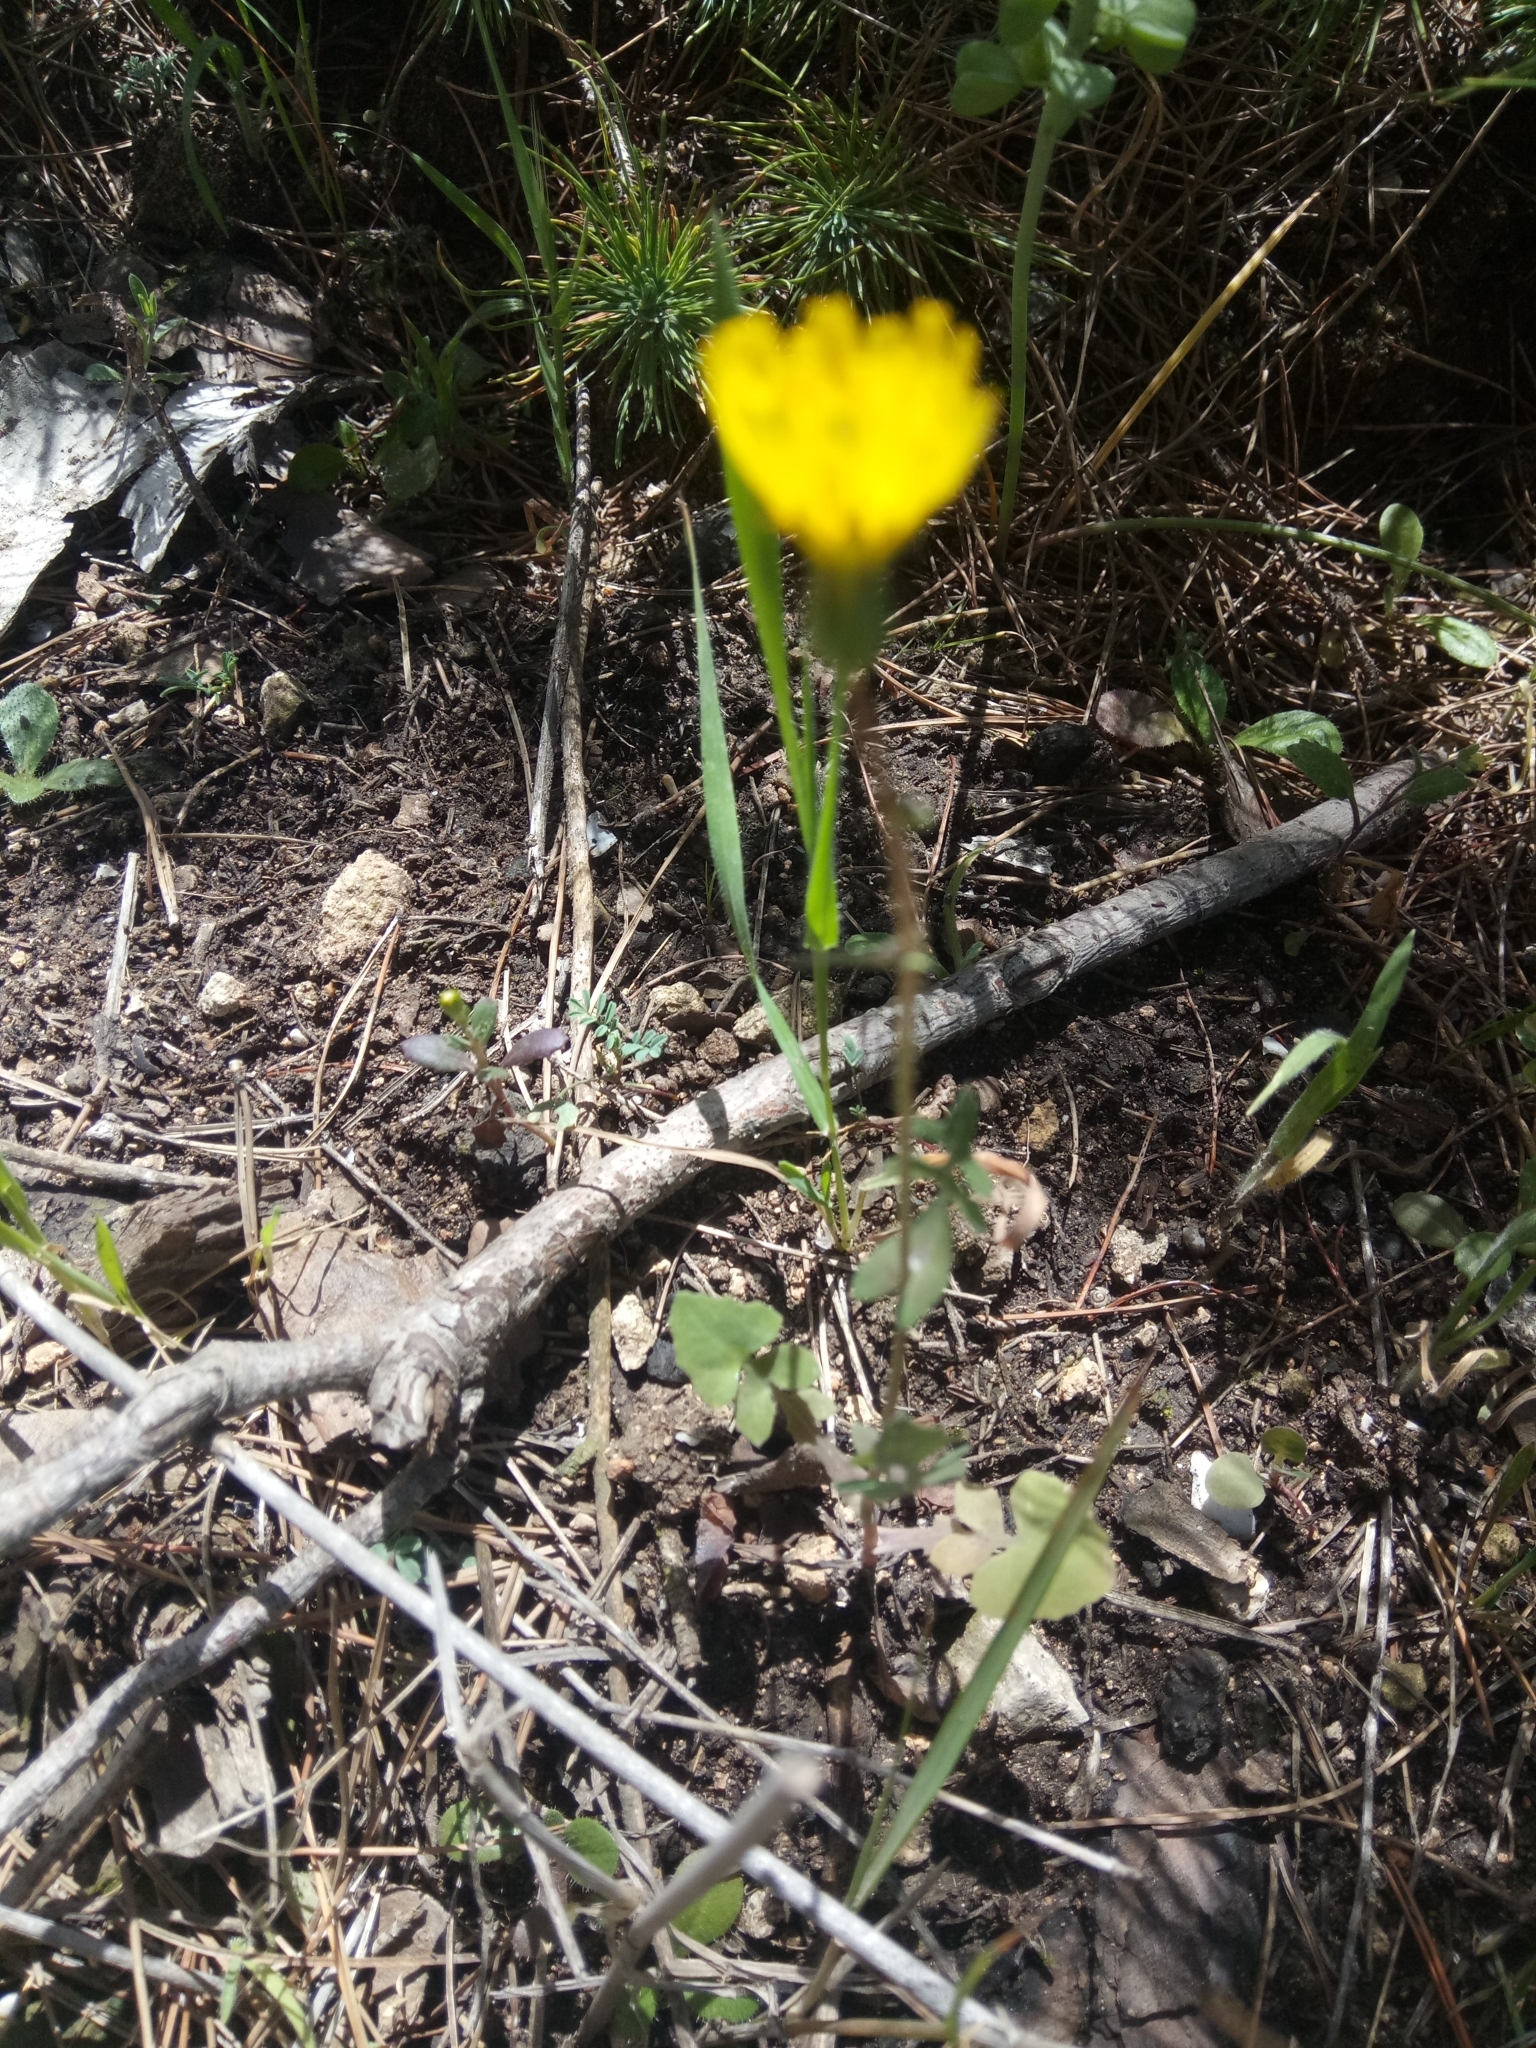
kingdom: Plantae
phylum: Tracheophyta
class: Magnoliopsida
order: Asterales
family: Asteraceae
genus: Sonchus
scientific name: Sonchus tenerrimus
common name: Clammy sowthistle
